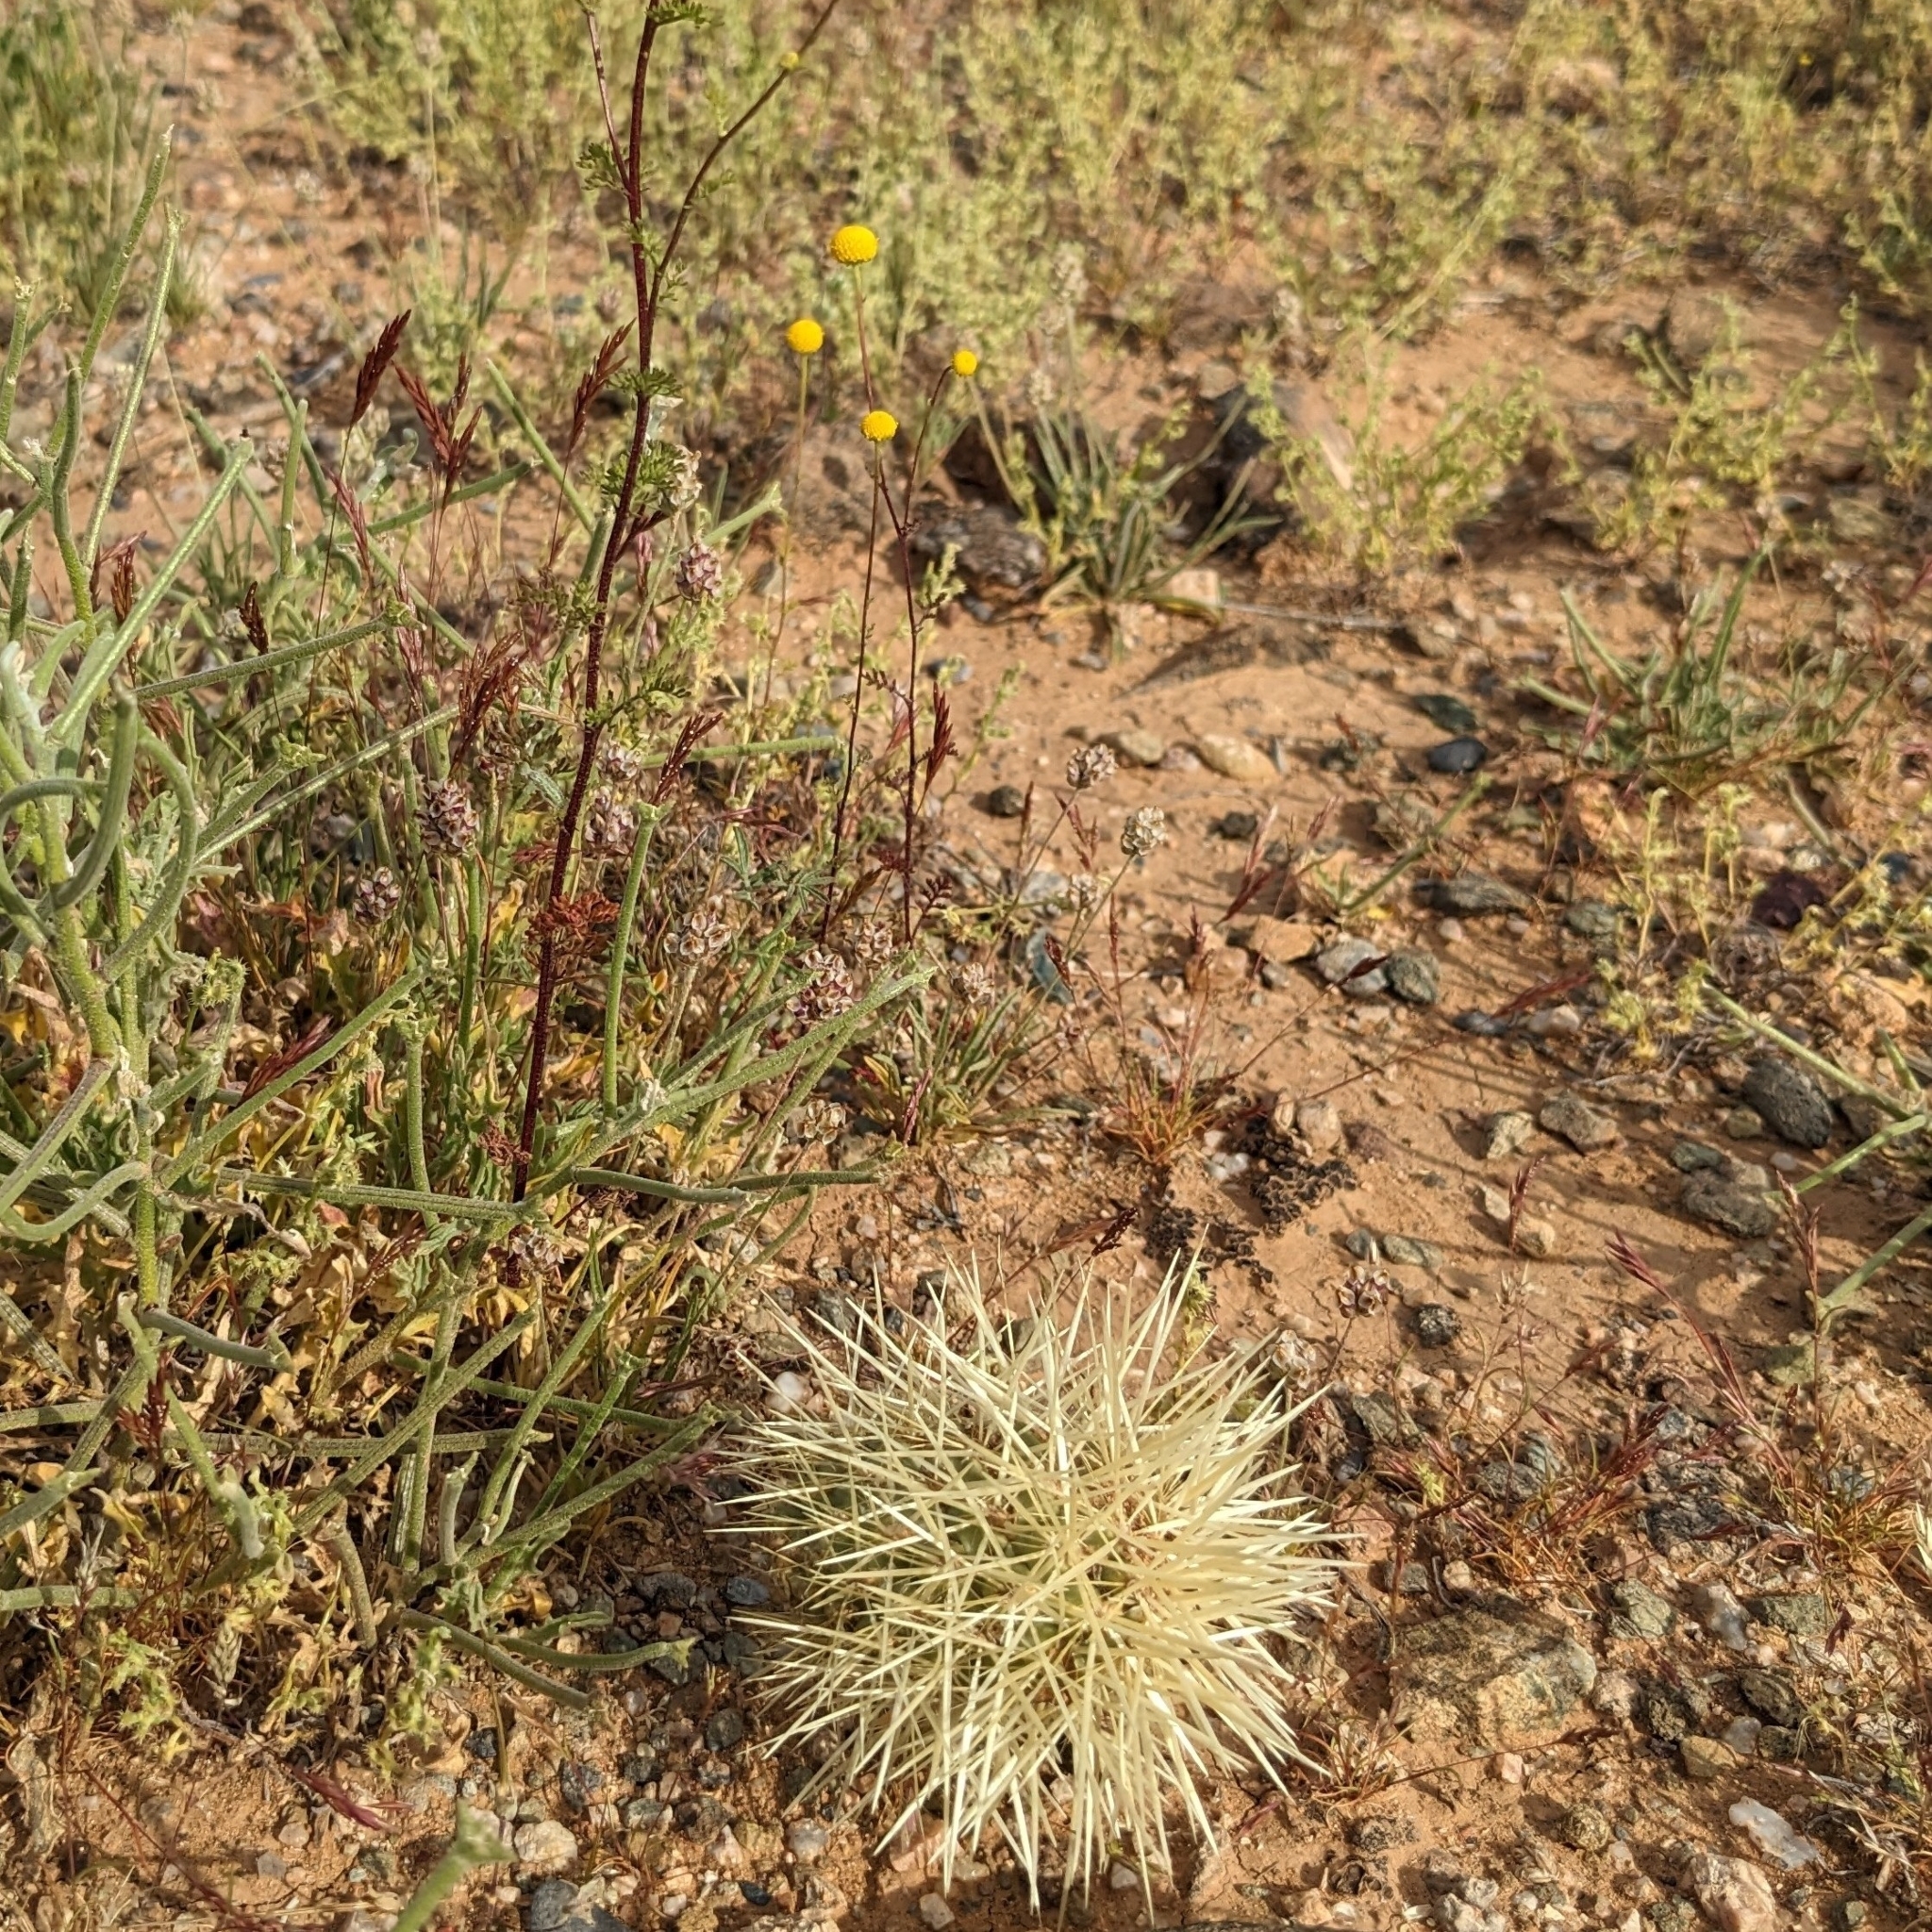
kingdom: Plantae
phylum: Tracheophyta
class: Magnoliopsida
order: Caryophyllales
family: Cactaceae
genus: Cylindropuntia
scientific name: Cylindropuntia fosbergii
